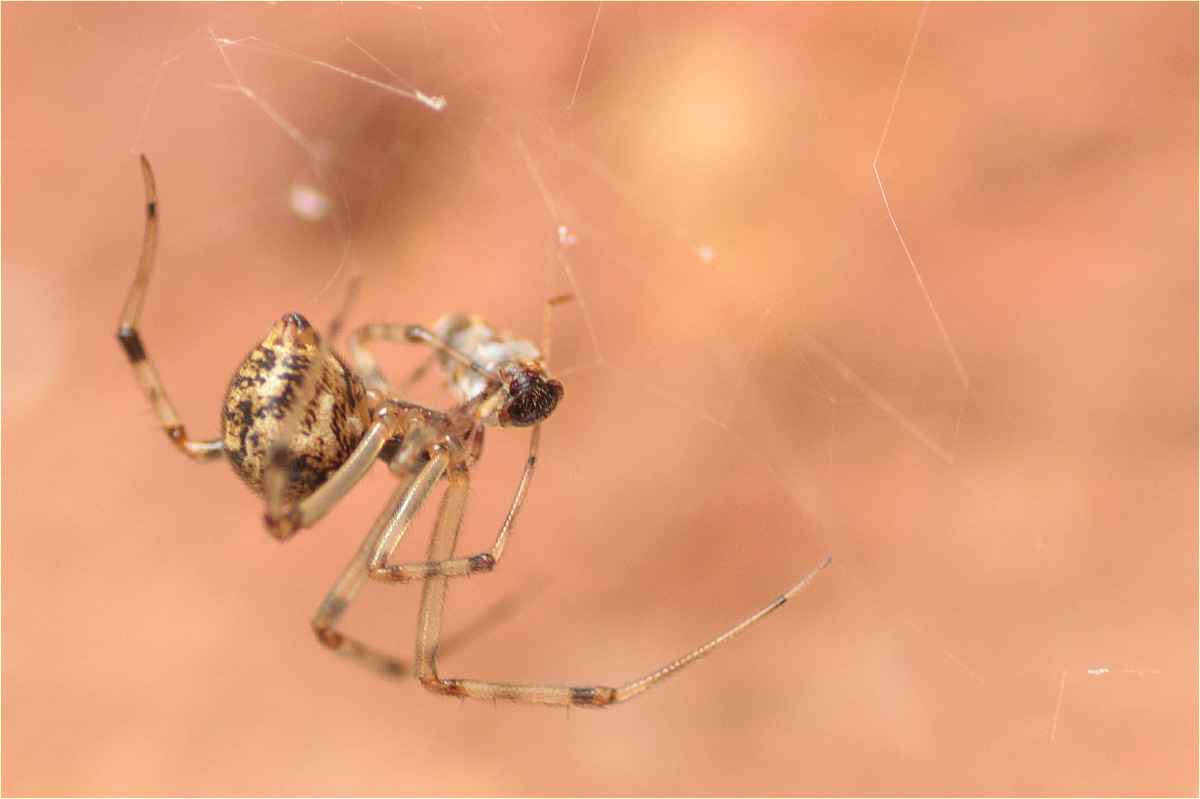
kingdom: Animalia
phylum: Arthropoda
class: Arachnida
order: Araneae
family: Theridiidae
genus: Parasteatoda
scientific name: Parasteatoda tepidariorum
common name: Common house spider
